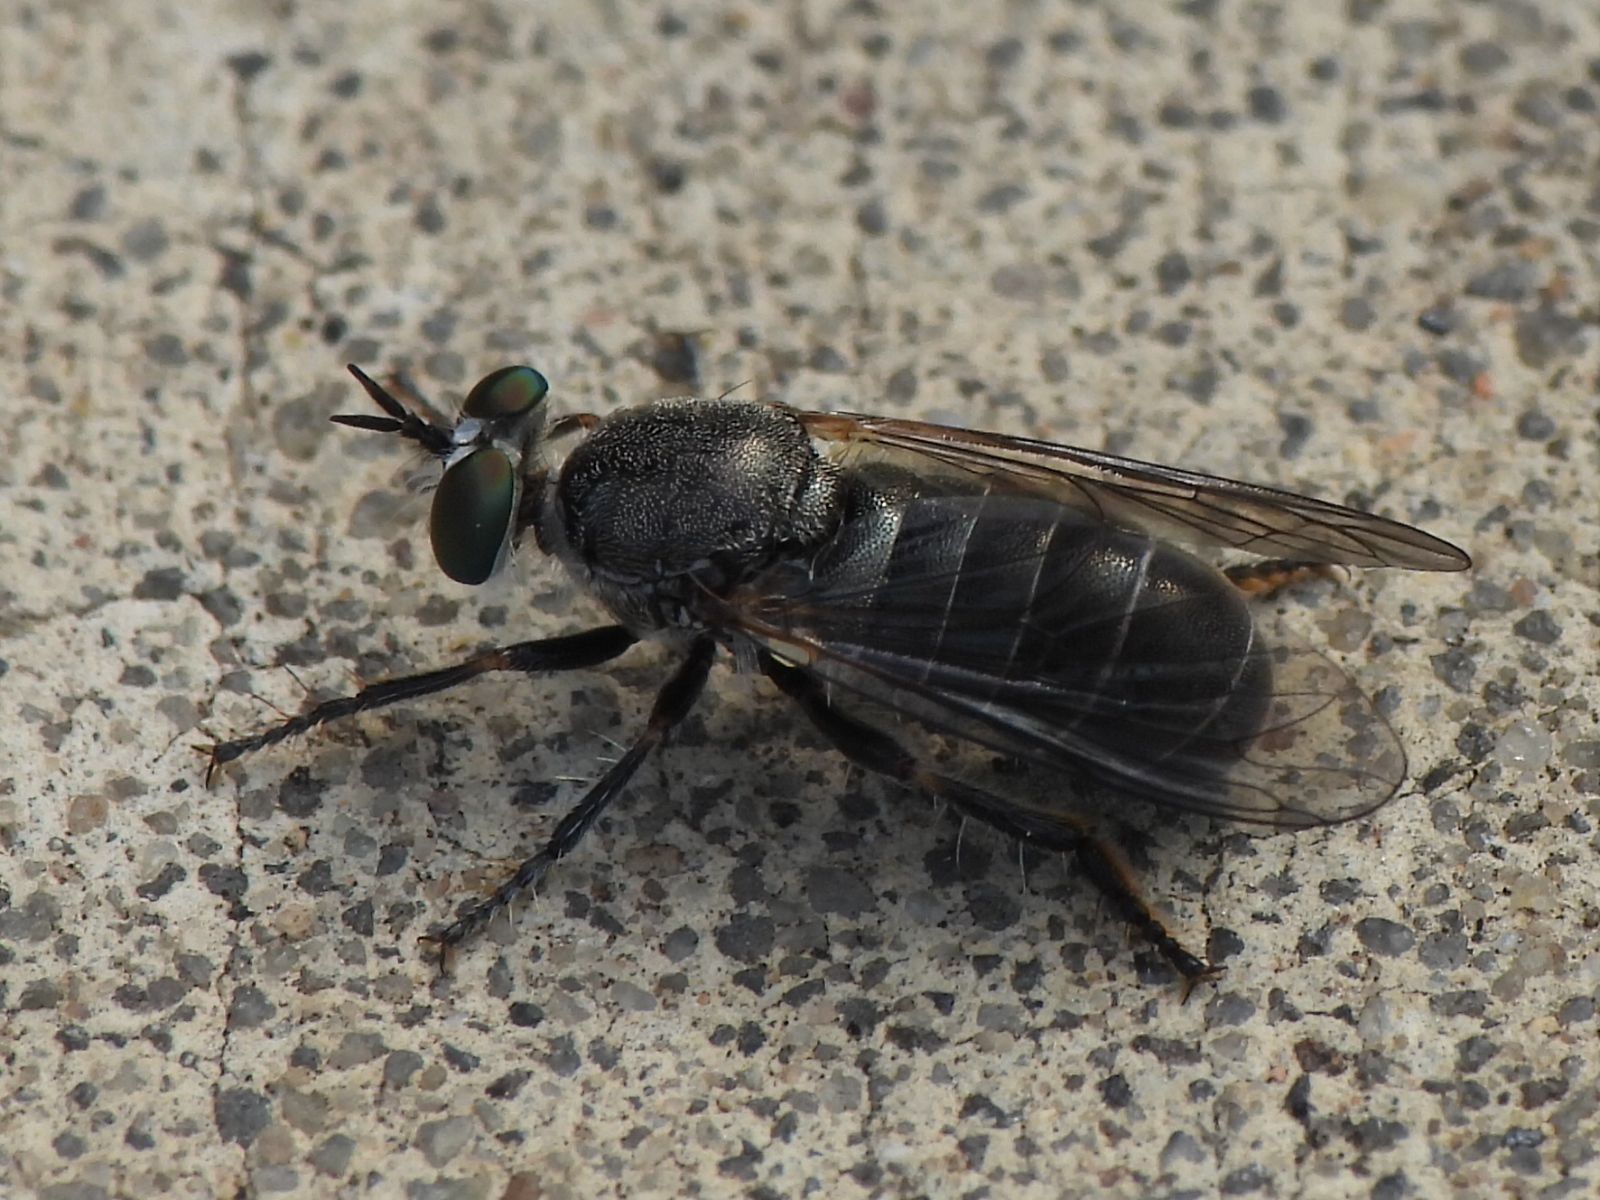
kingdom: Animalia
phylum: Arthropoda
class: Insecta
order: Diptera
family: Asilidae
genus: Atomosia
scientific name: Atomosia melanopogon
